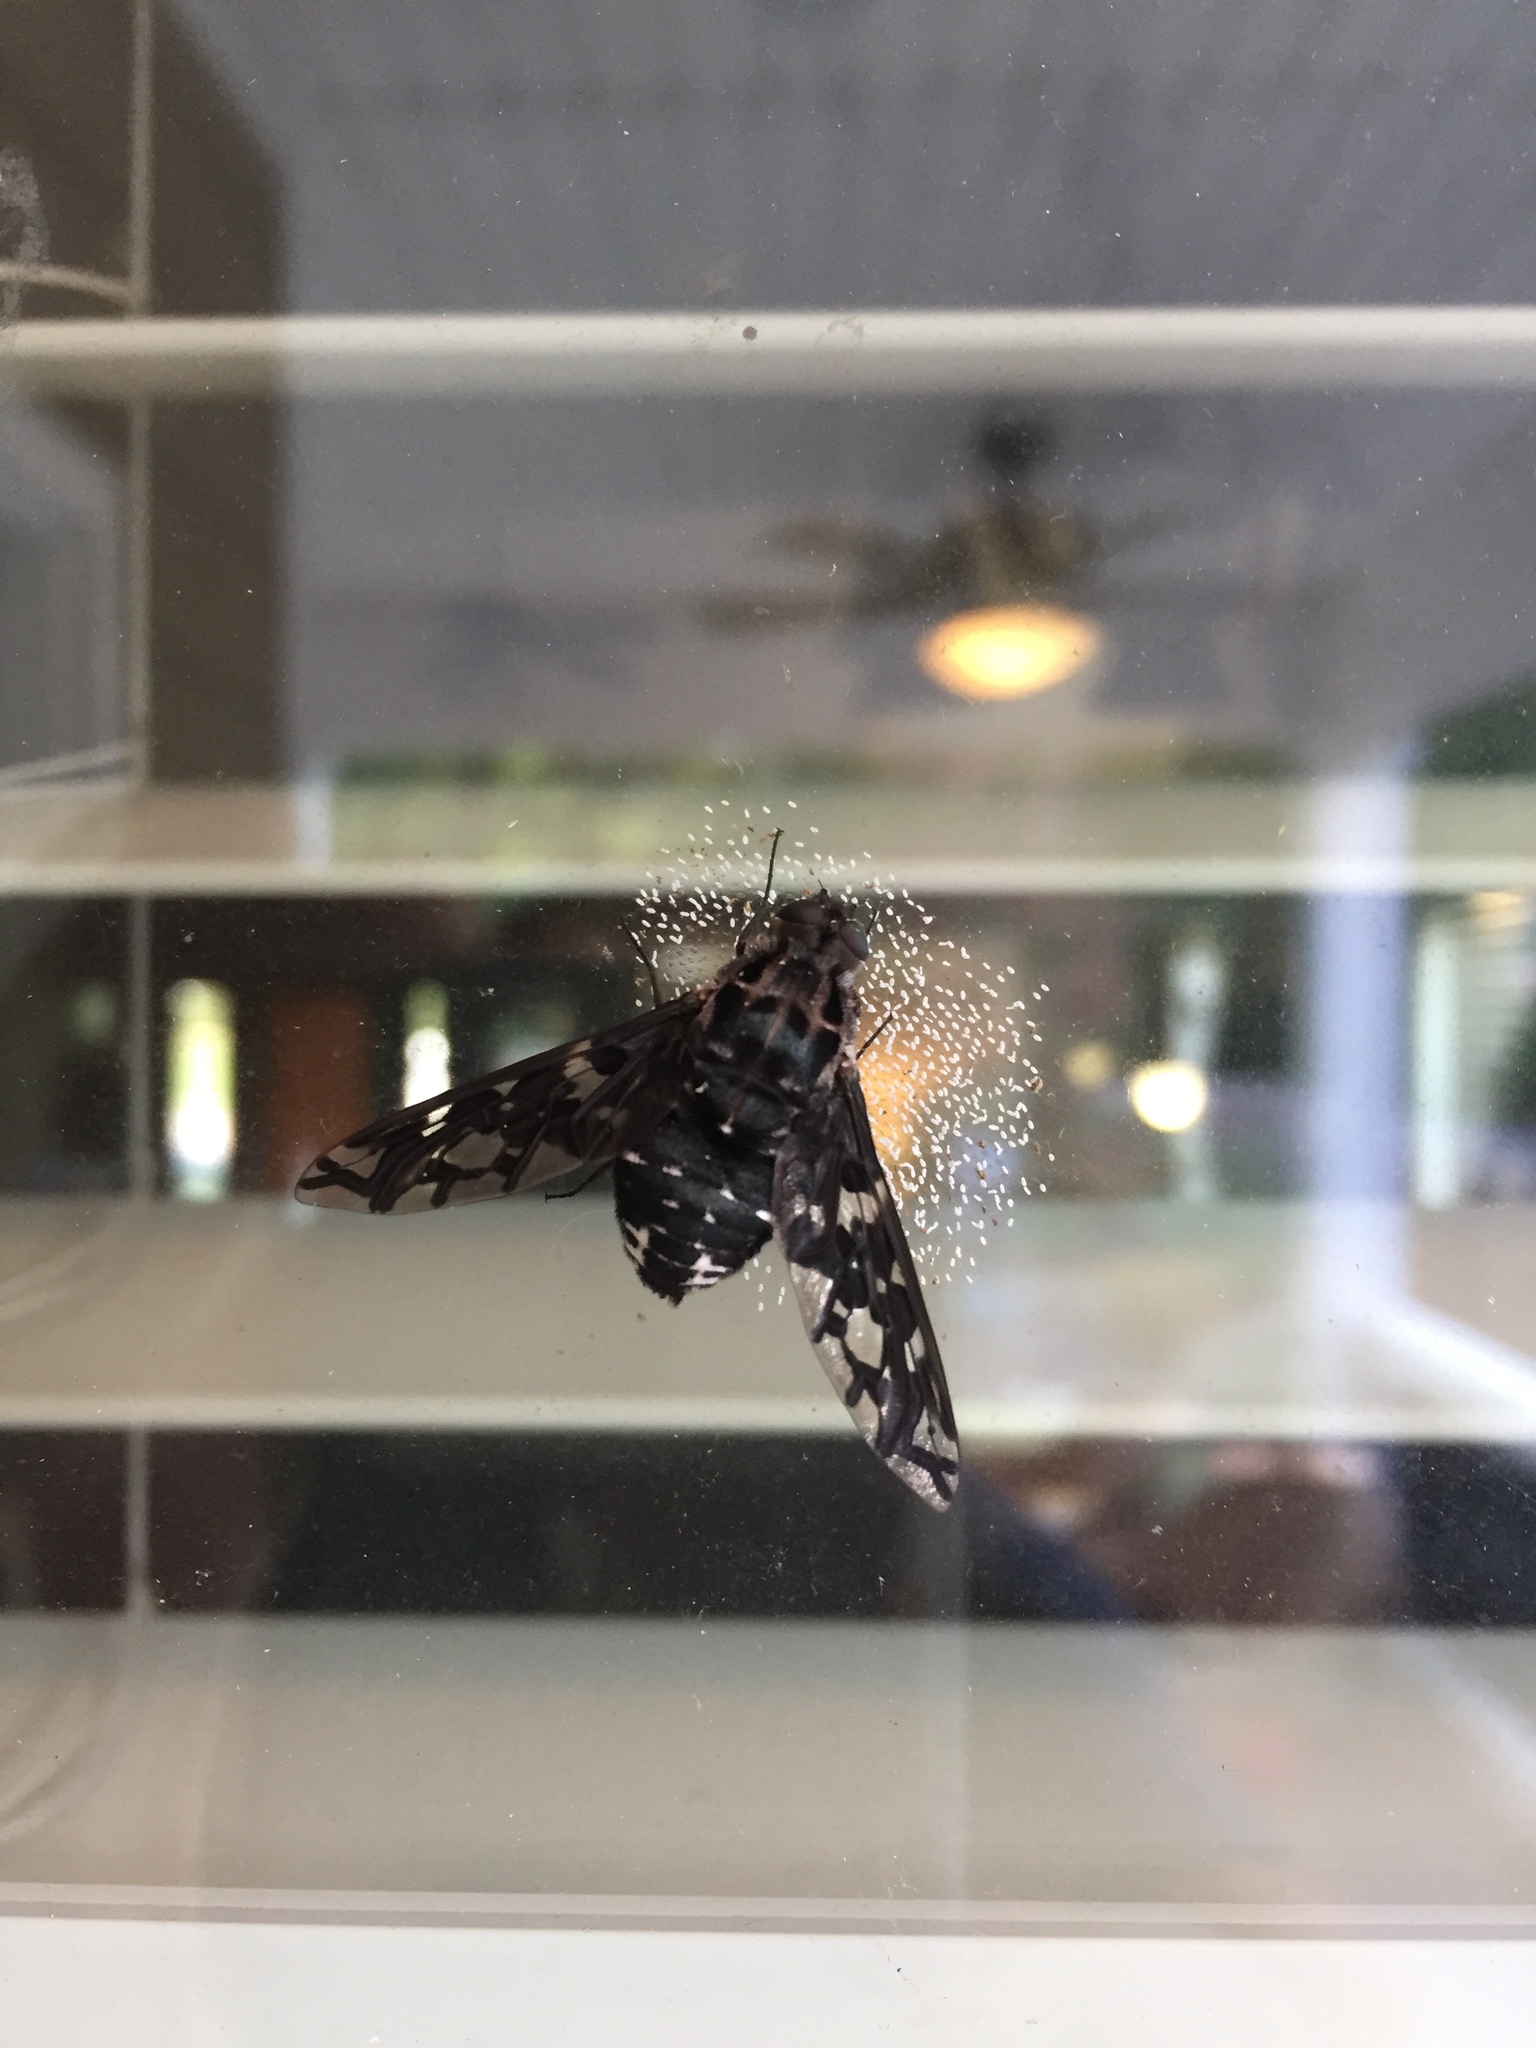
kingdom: Animalia
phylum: Arthropoda
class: Insecta
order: Diptera
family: Bombyliidae
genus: Xenox
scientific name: Xenox tigrinus
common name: Tiger bee fly
